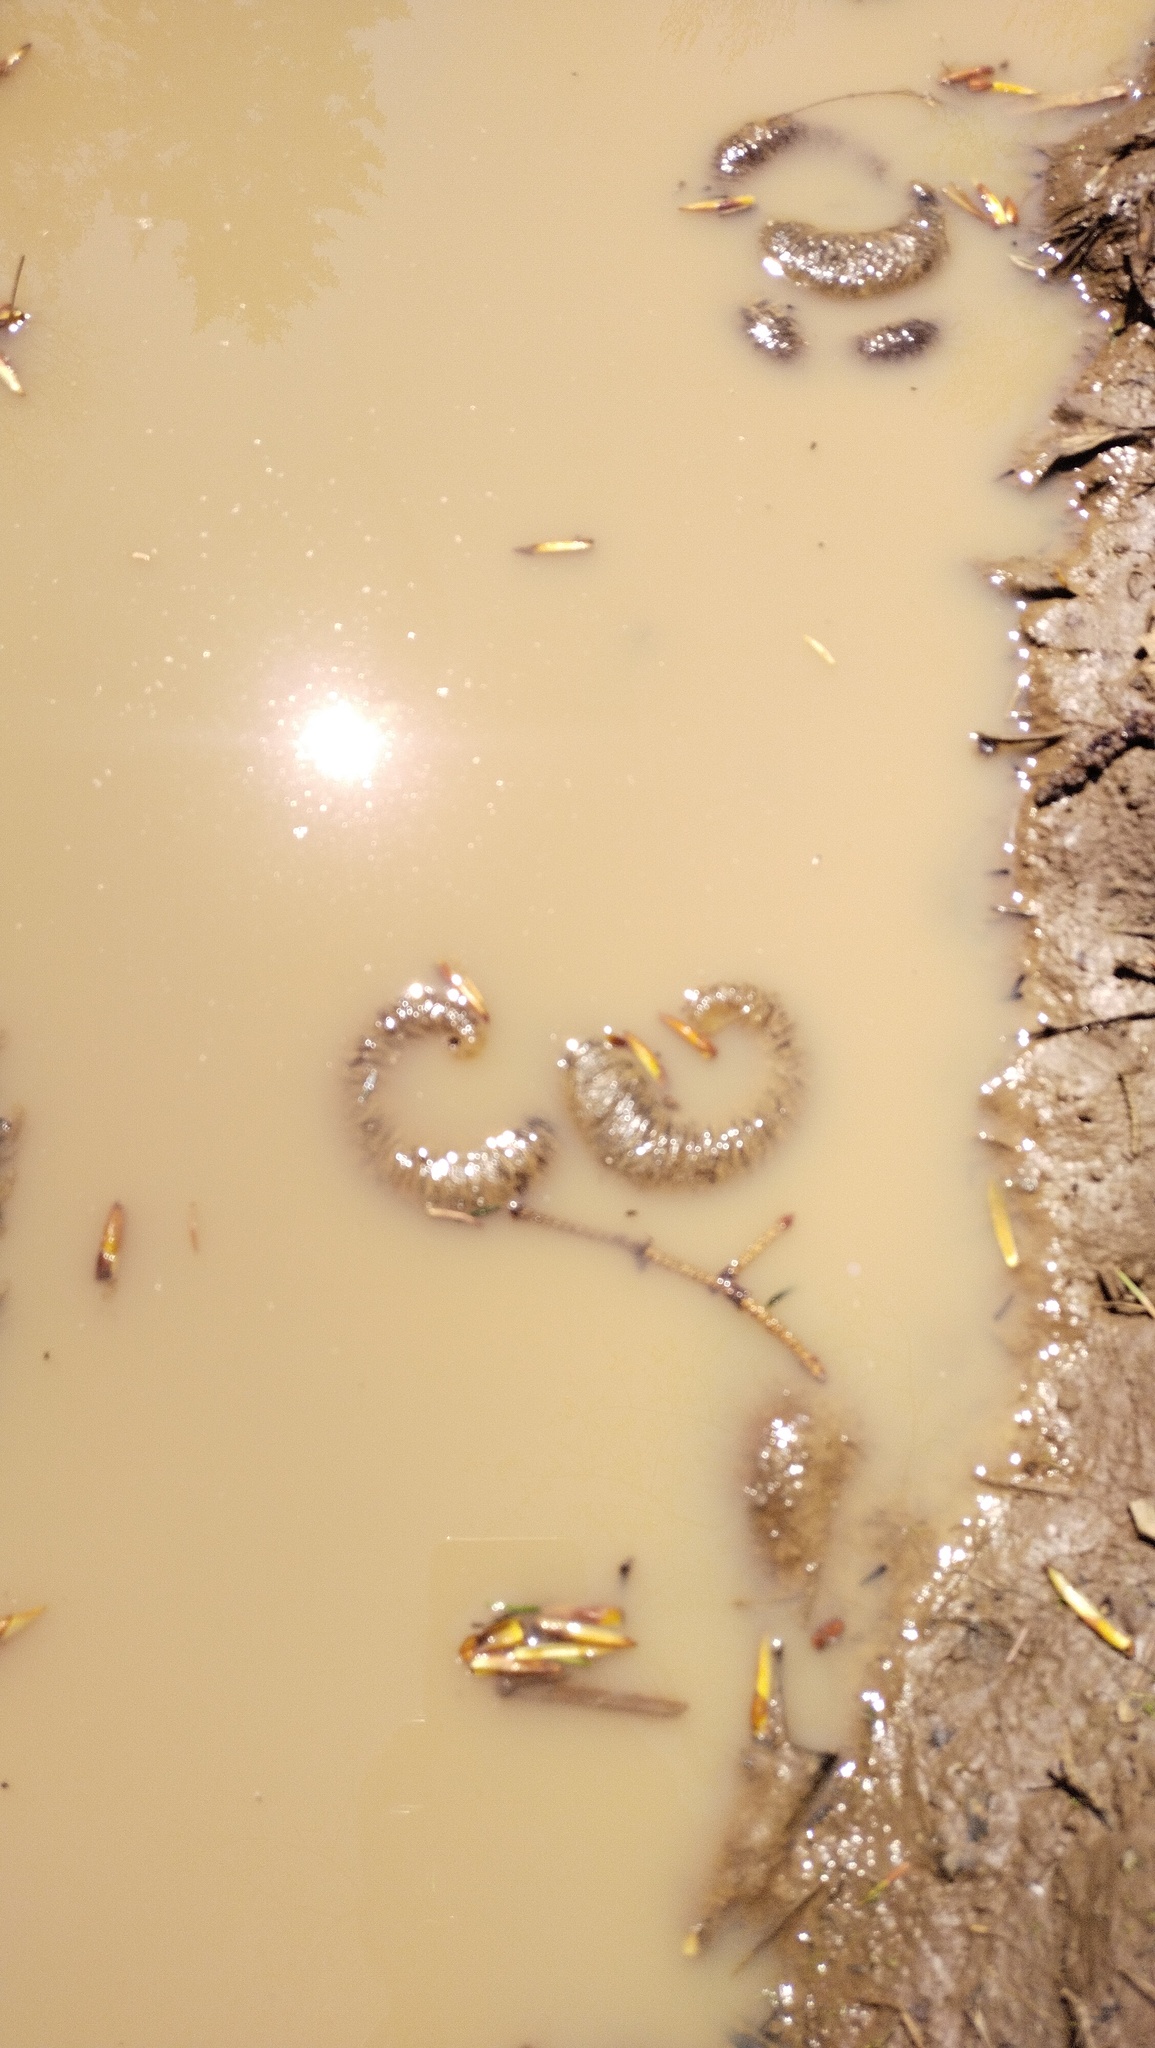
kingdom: Animalia
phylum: Chordata
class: Amphibia
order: Caudata
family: Hynobiidae
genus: Salamandrella
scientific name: Salamandrella tridactyla
